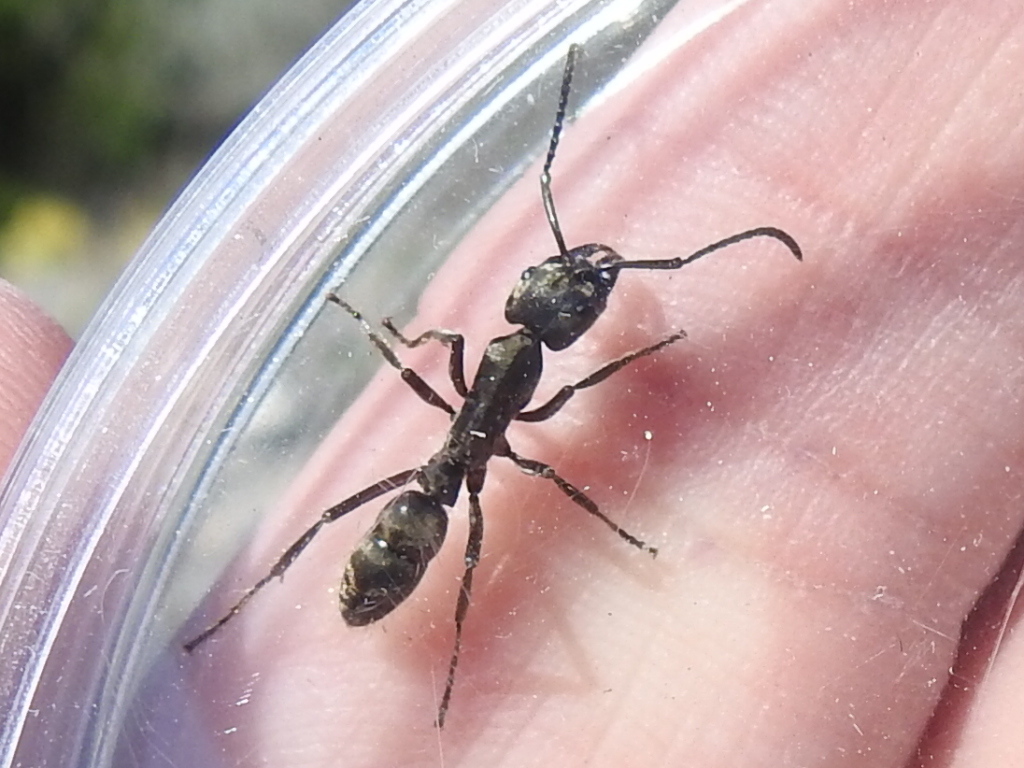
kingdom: Animalia
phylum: Arthropoda
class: Insecta
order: Hymenoptera
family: Formicidae
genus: Pachycondyla
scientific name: Pachycondyla villosa
